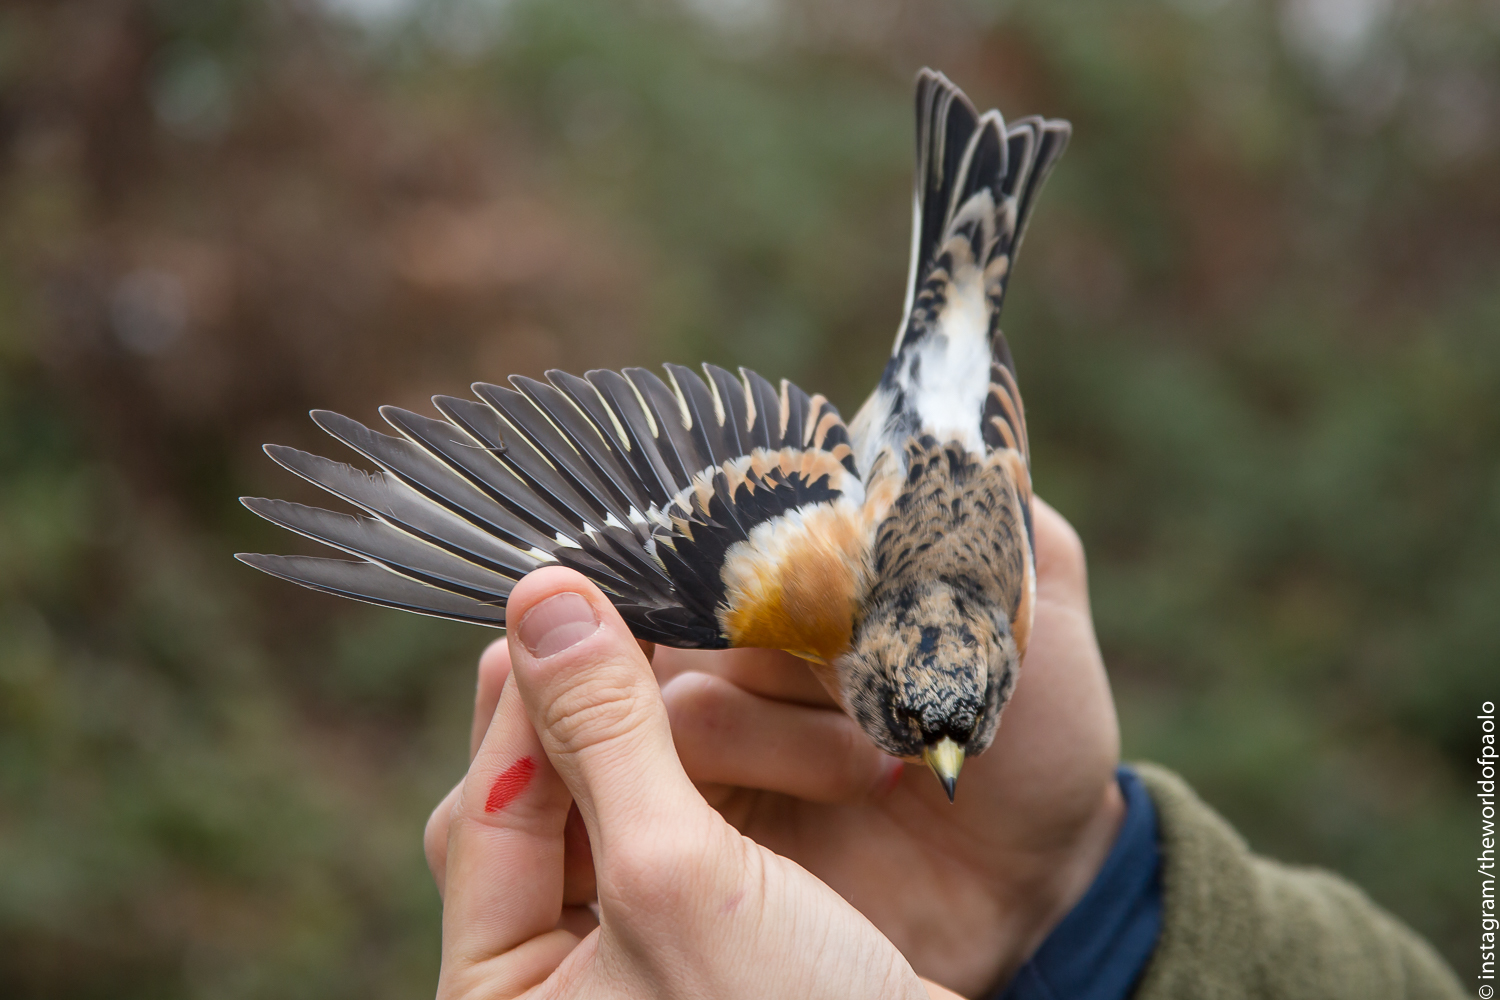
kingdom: Animalia
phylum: Chordata
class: Aves
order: Passeriformes
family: Fringillidae
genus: Fringilla
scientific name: Fringilla montifringilla
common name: Brambling
